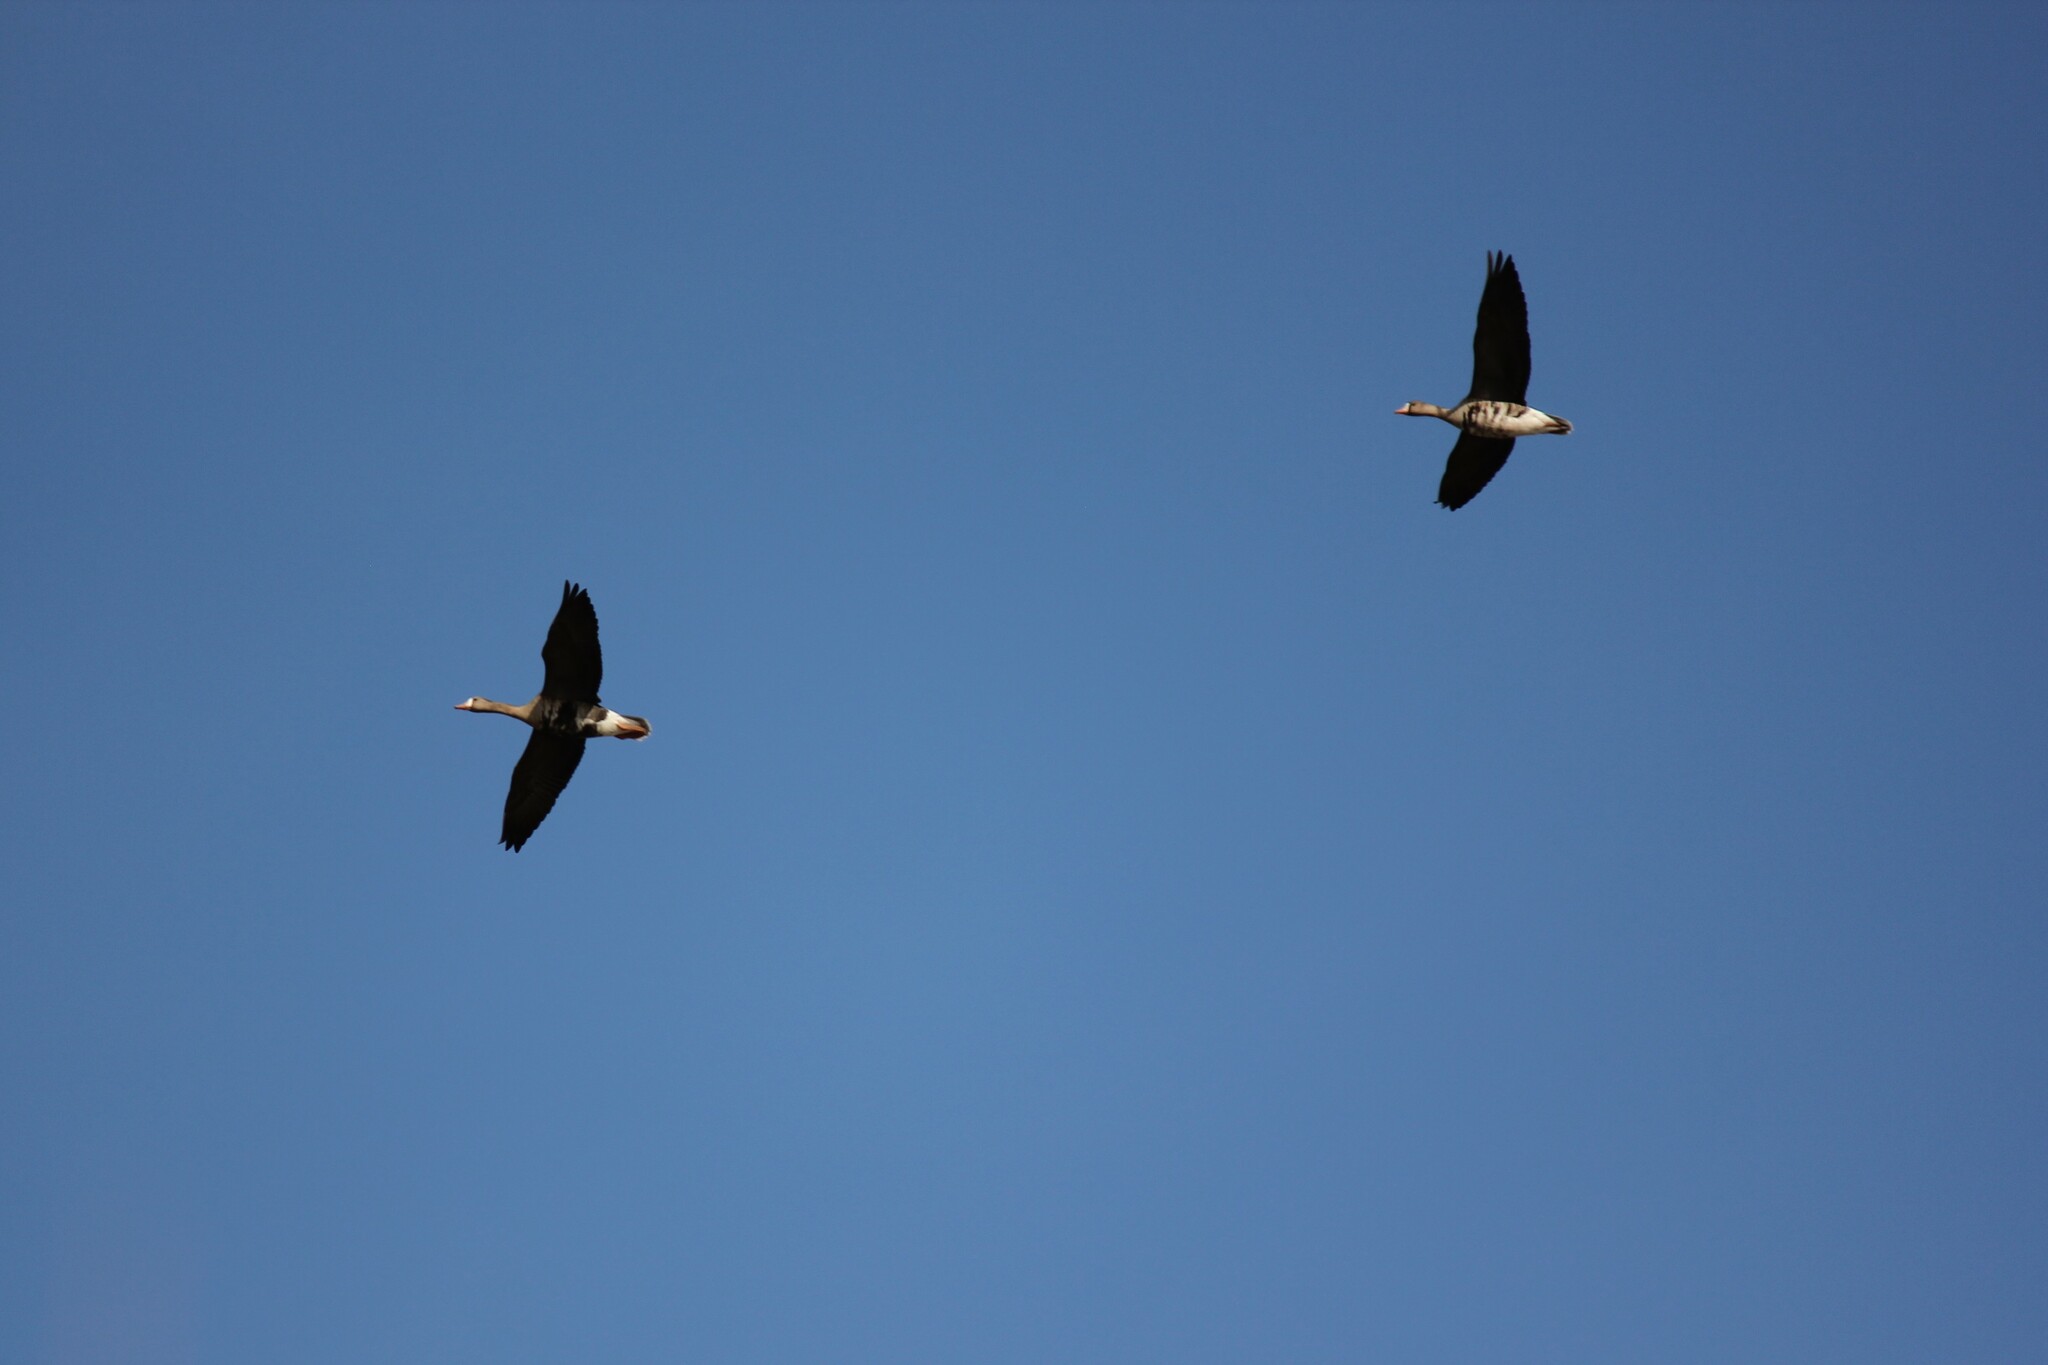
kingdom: Animalia
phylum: Chordata
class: Aves
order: Anseriformes
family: Anatidae
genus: Anser
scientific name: Anser albifrons
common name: Greater white-fronted goose
